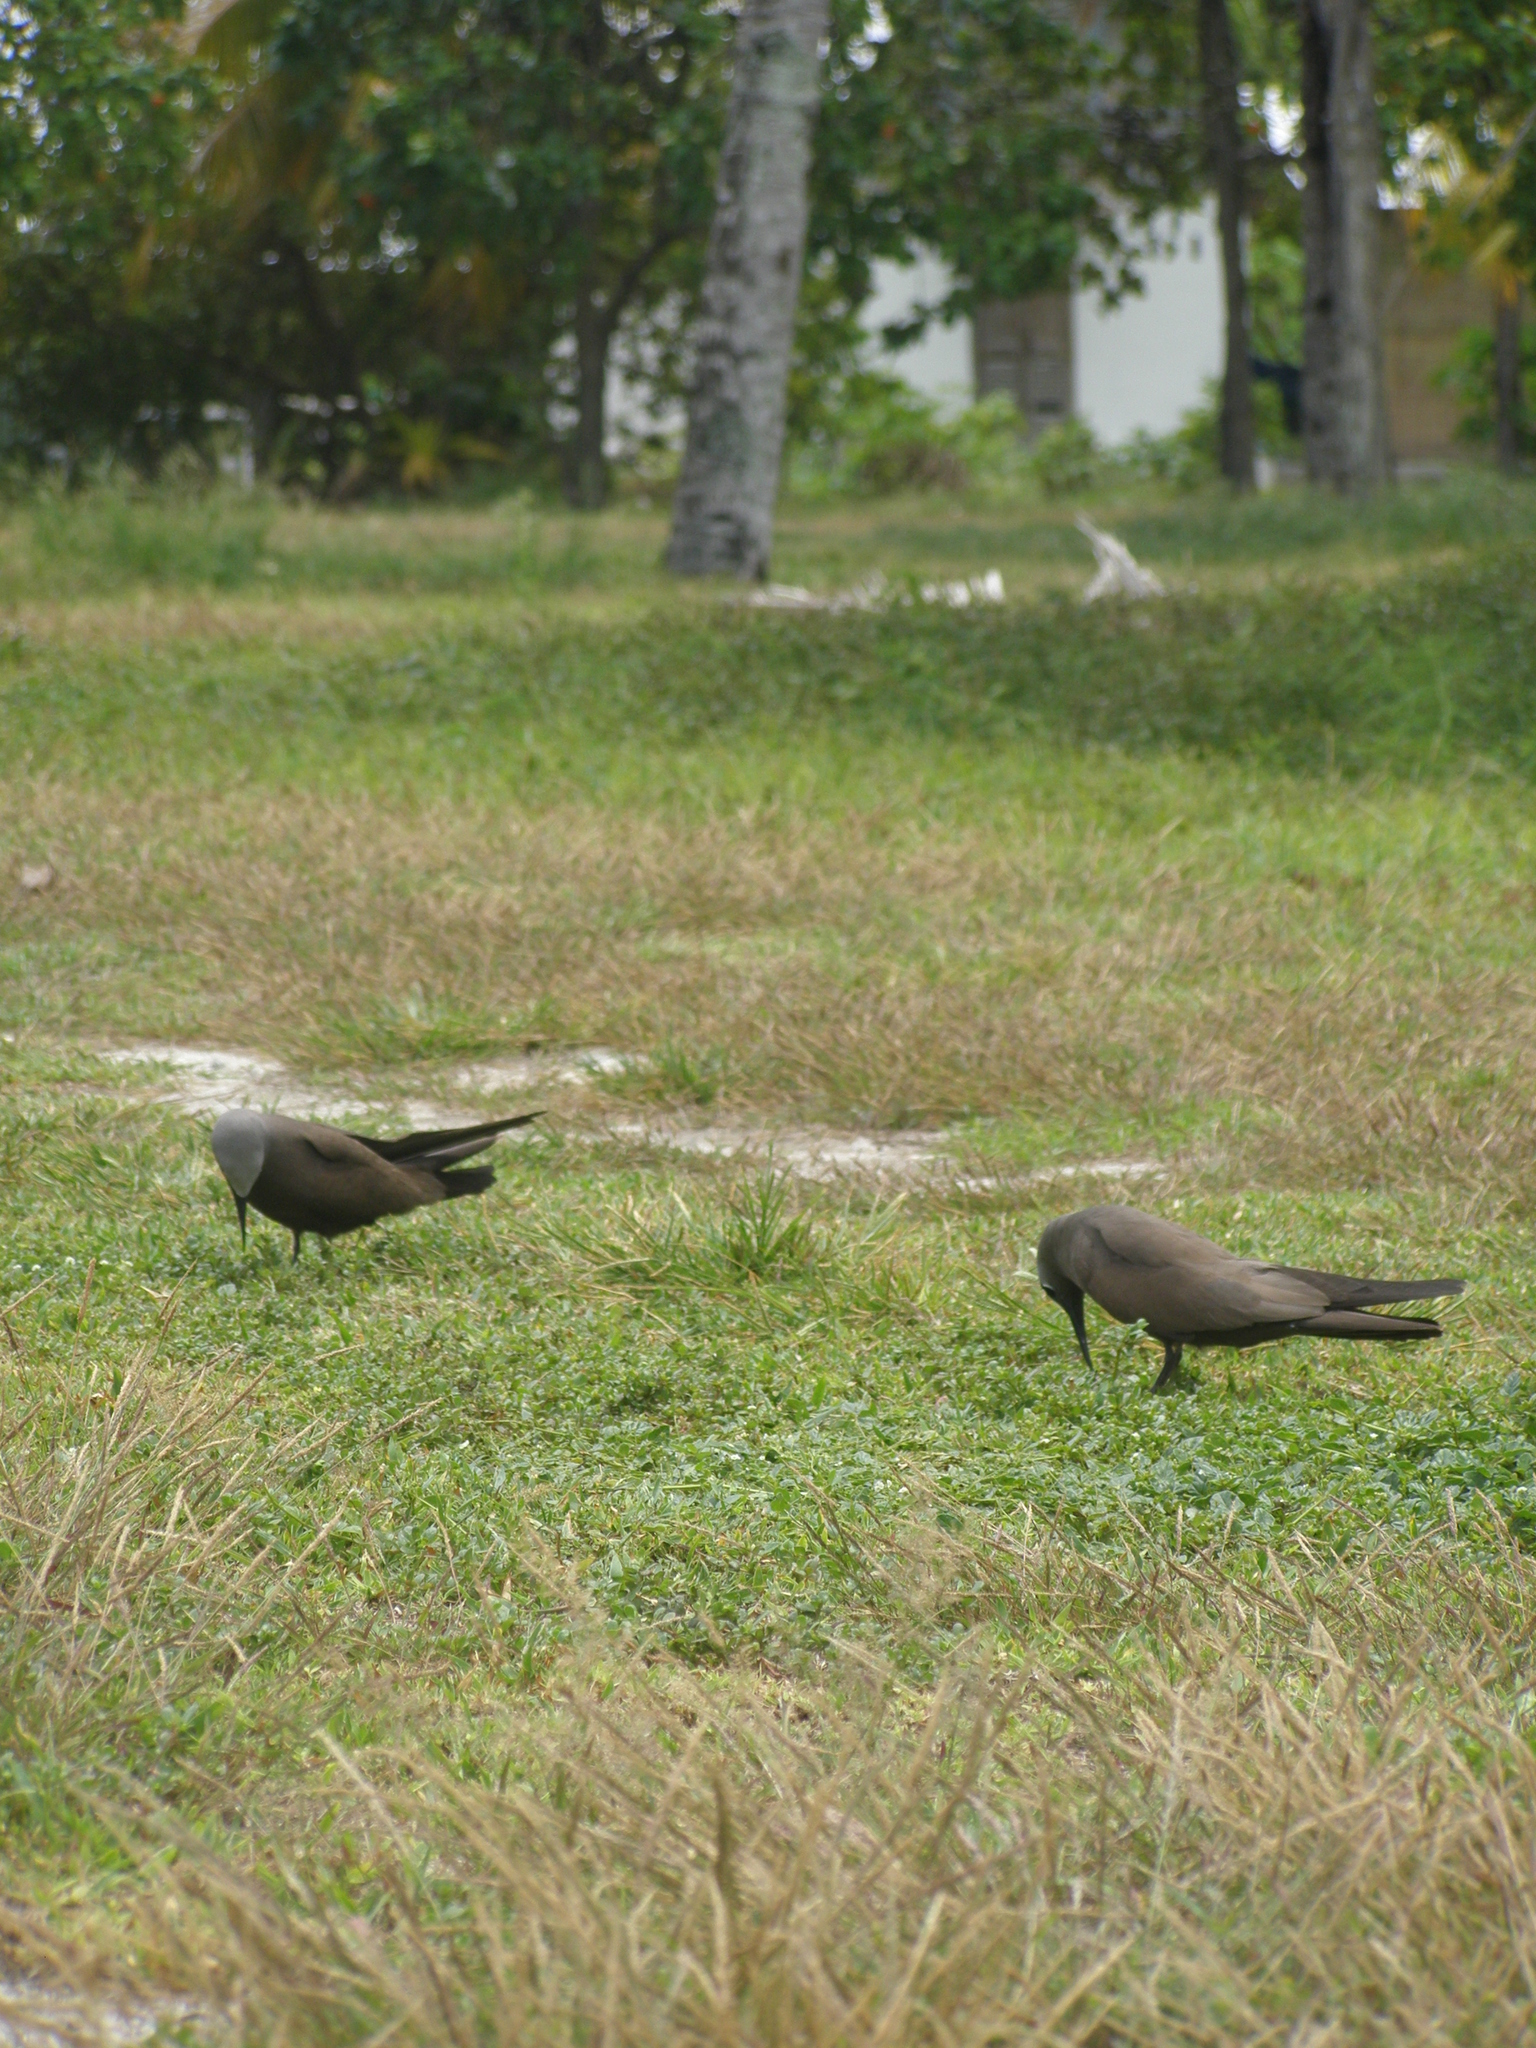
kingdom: Animalia
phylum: Chordata
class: Aves
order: Charadriiformes
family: Laridae
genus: Anous
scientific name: Anous stolidus
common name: Brown noddy
